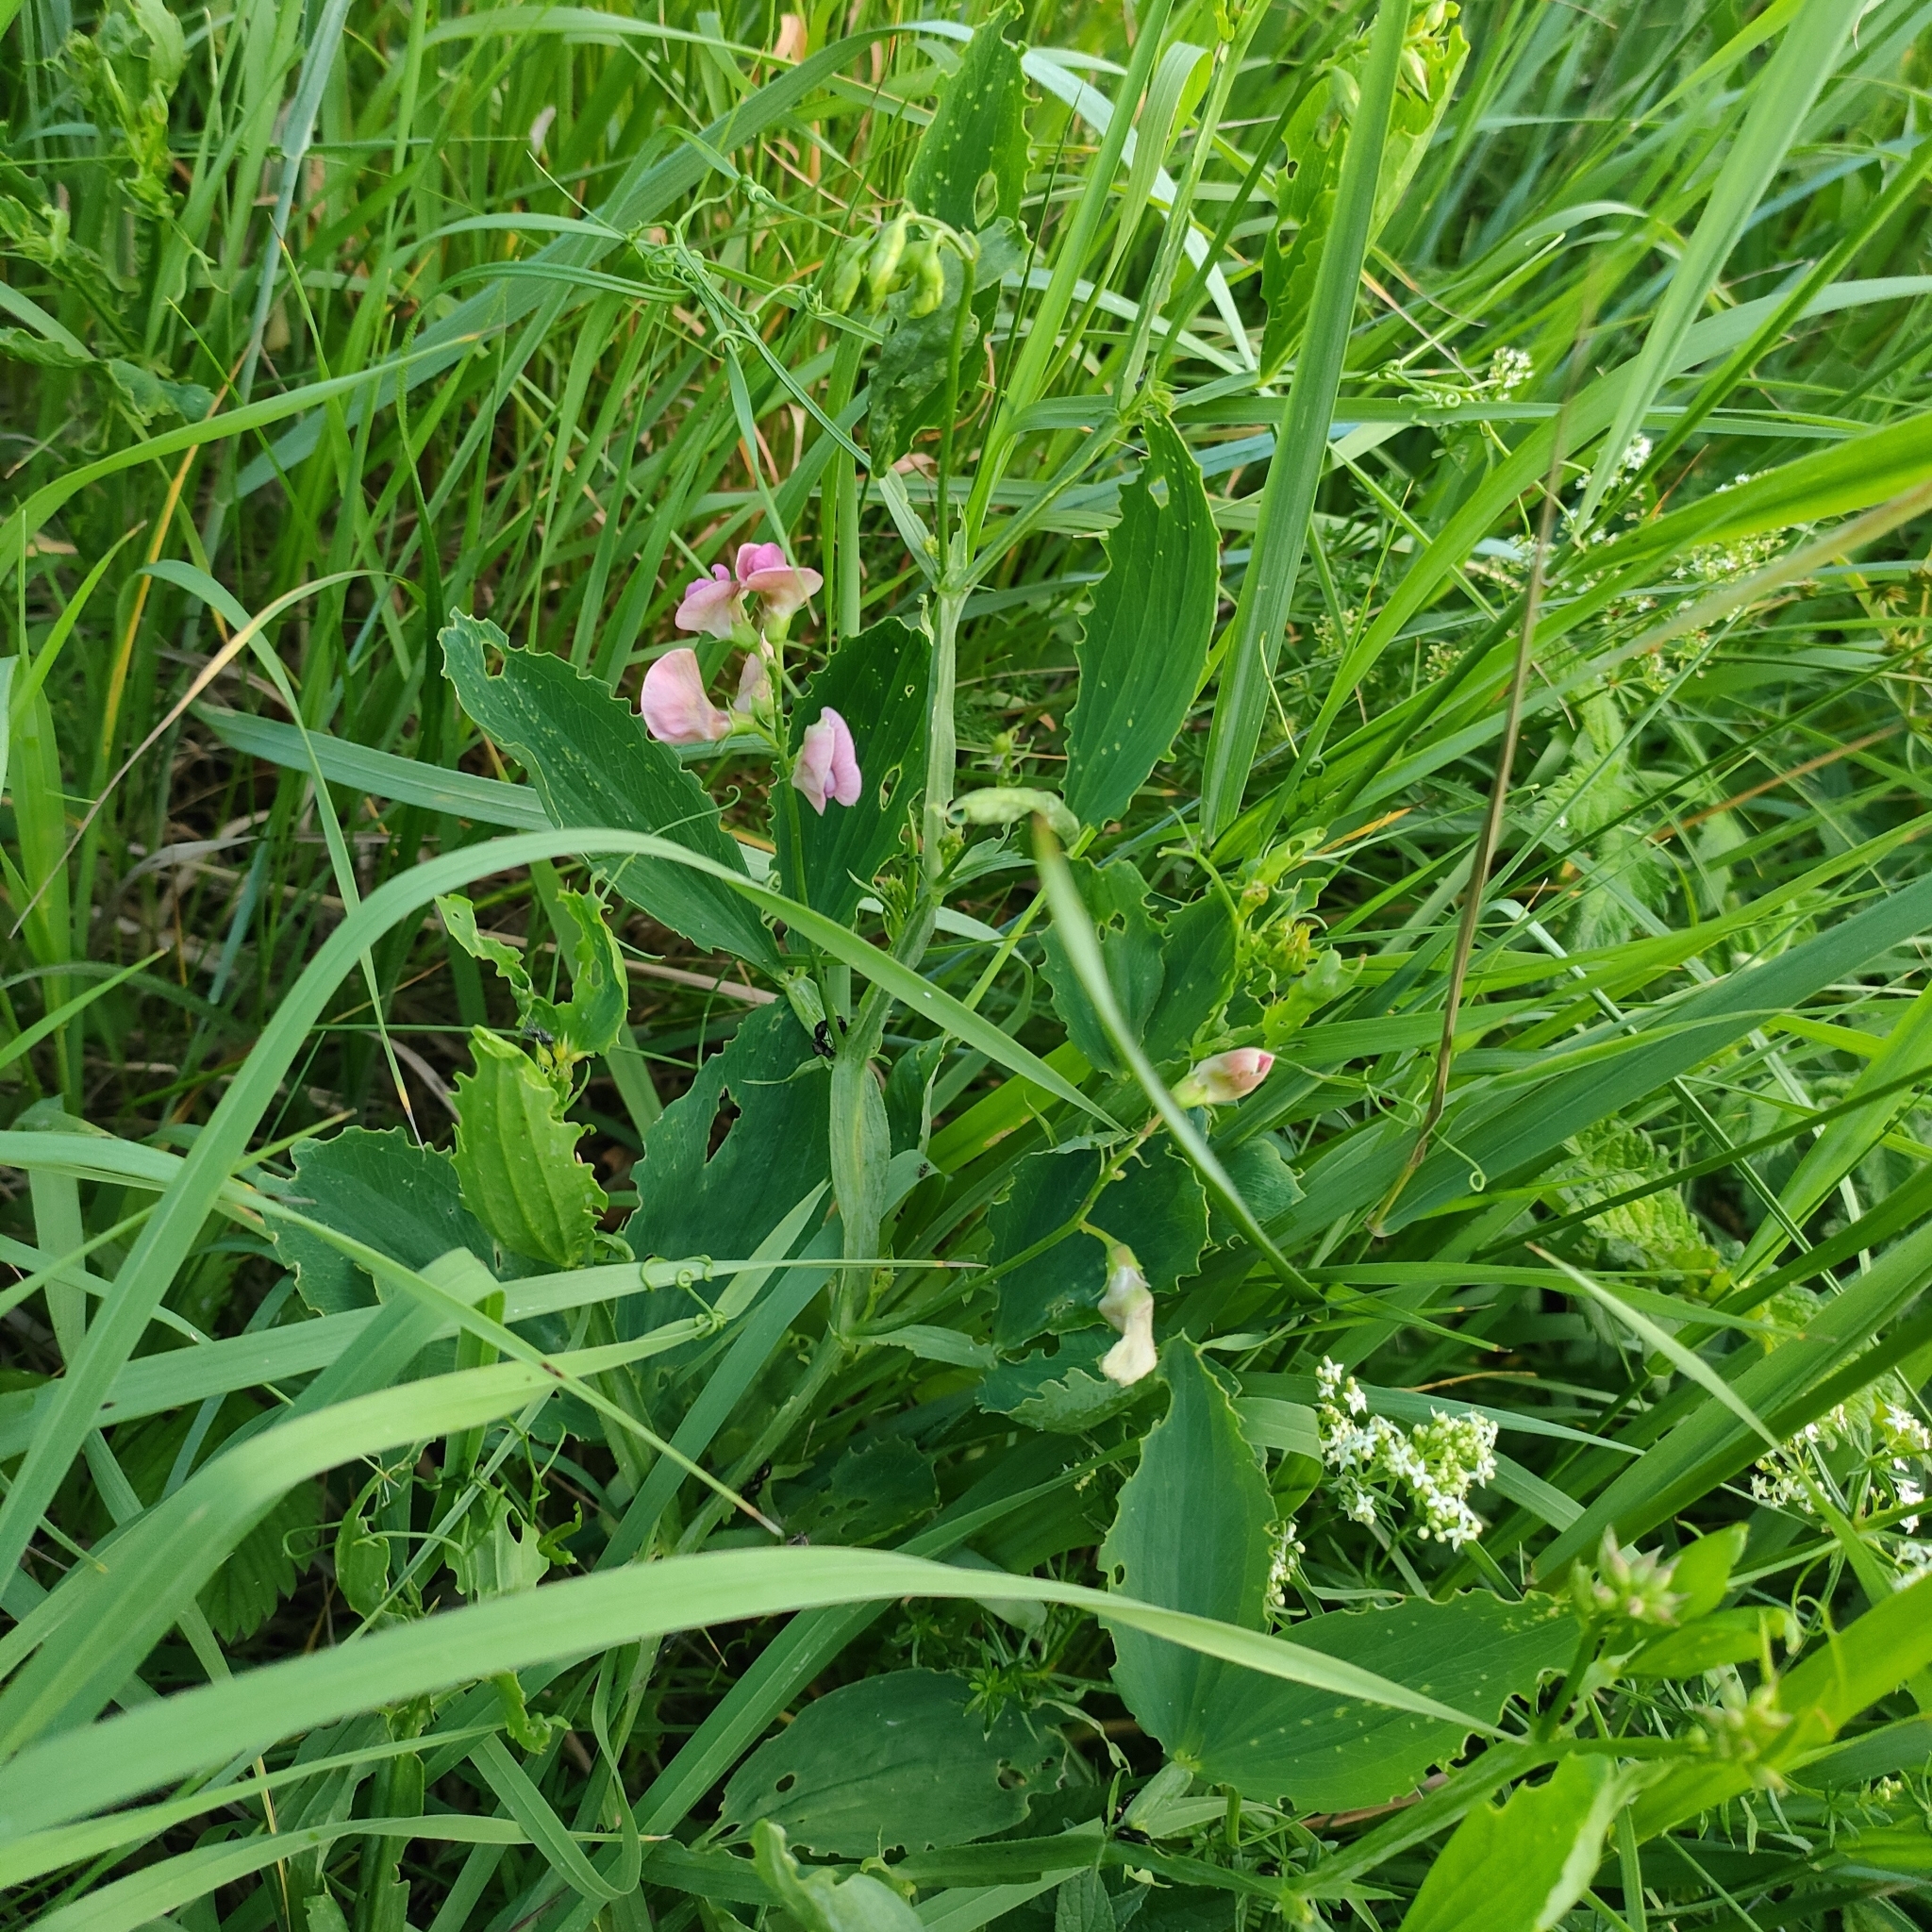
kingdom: Plantae
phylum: Tracheophyta
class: Magnoliopsida
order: Fabales
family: Fabaceae
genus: Lathyrus
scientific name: Lathyrus sylvestris
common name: Flat pea
